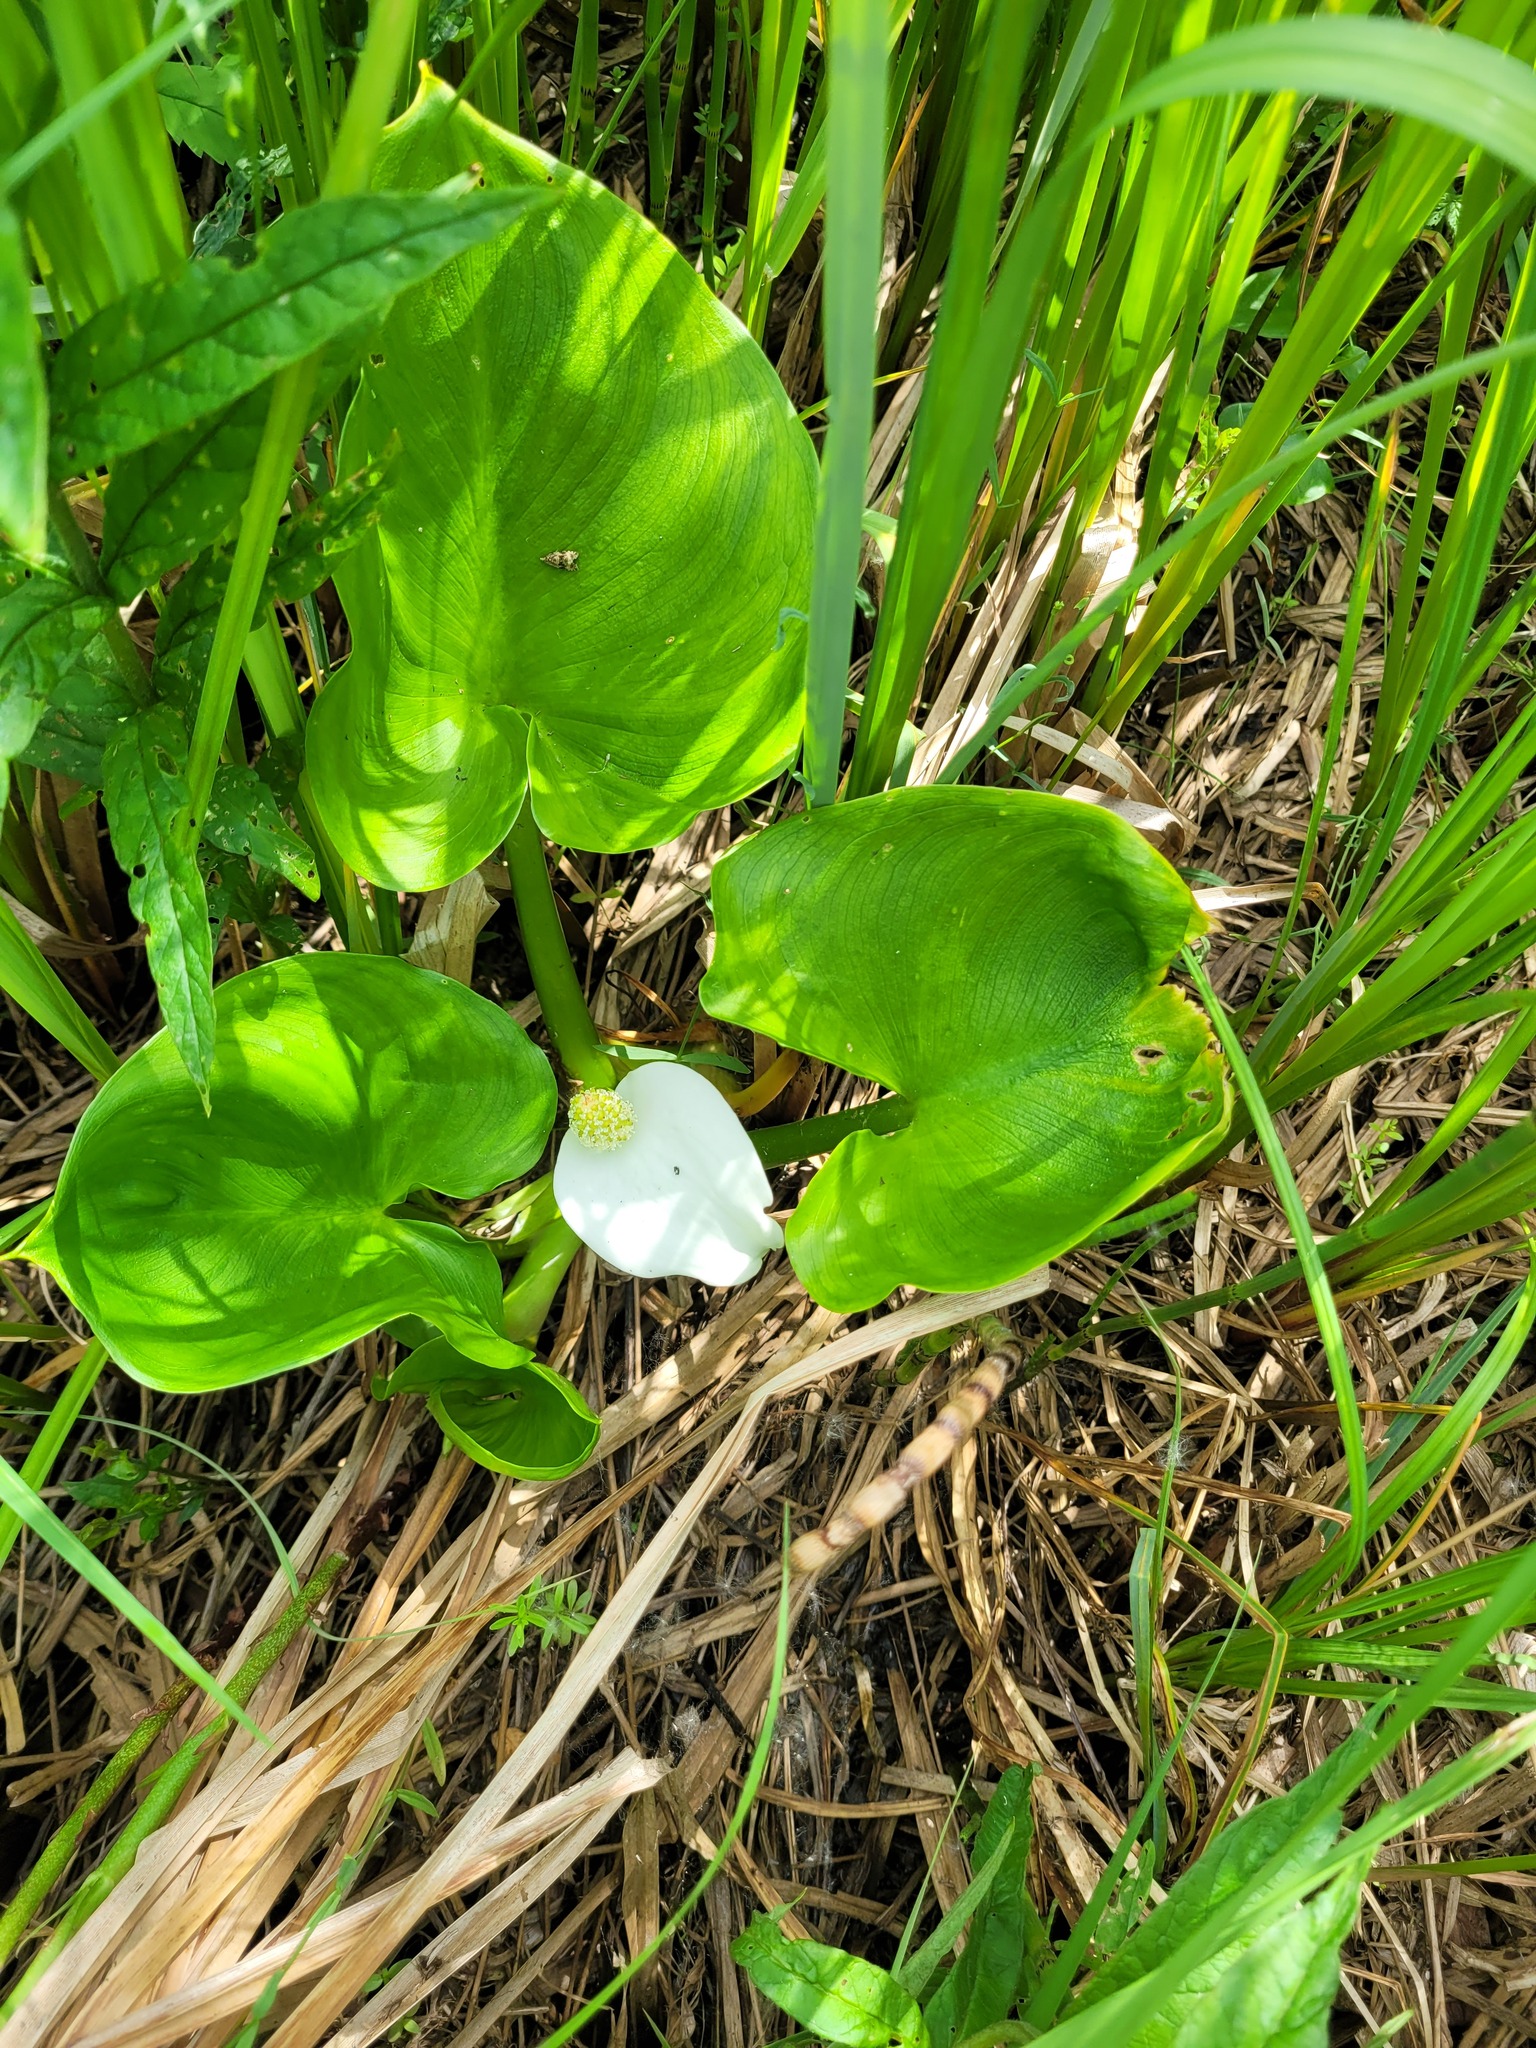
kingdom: Plantae
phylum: Tracheophyta
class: Liliopsida
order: Alismatales
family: Araceae
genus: Calla
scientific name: Calla palustris
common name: Bog arum
